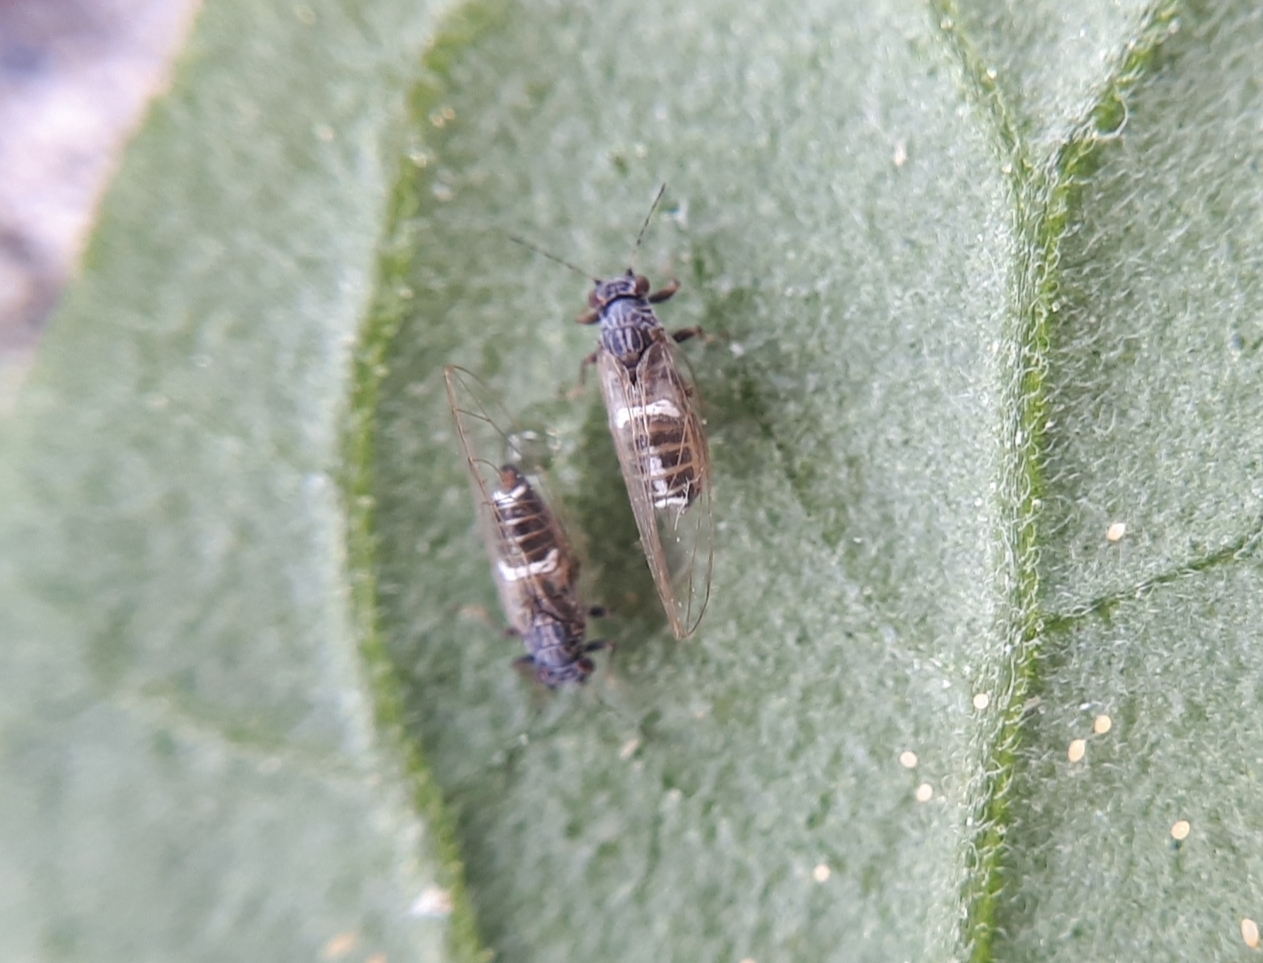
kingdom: Animalia
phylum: Arthropoda
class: Insecta
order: Hemiptera
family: Triozidae
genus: Bactericera
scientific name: Bactericera cockerelli
